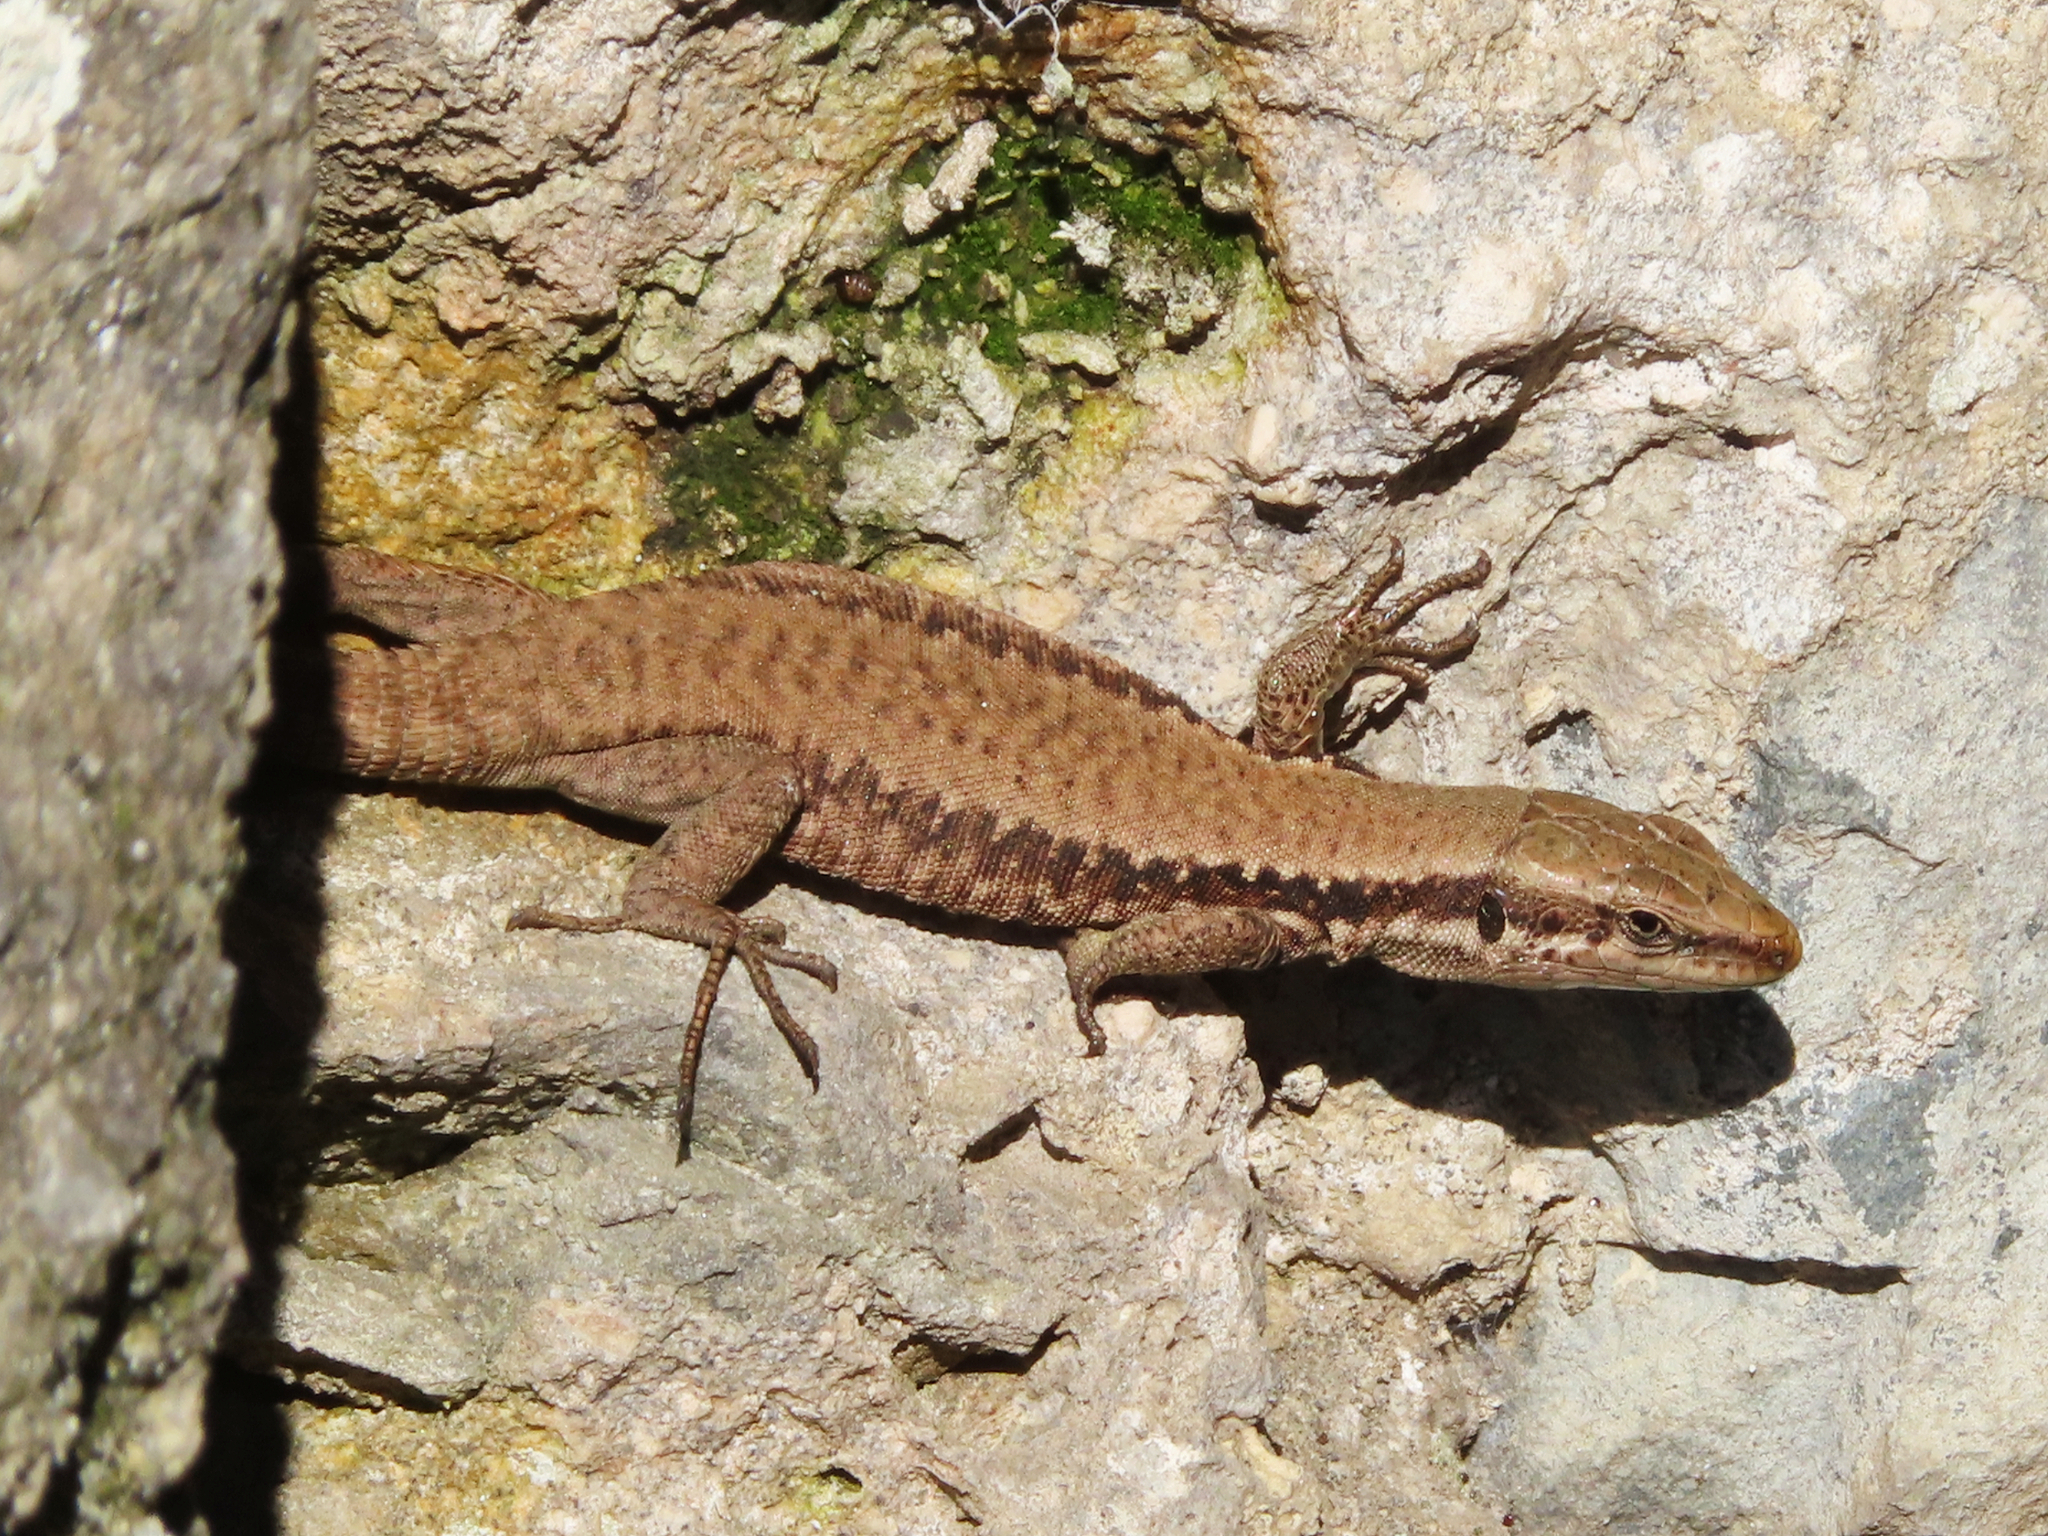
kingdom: Animalia
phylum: Chordata
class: Squamata
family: Lacertidae
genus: Phoenicolacerta
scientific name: Phoenicolacerta laevis
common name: Lebanon lizard
